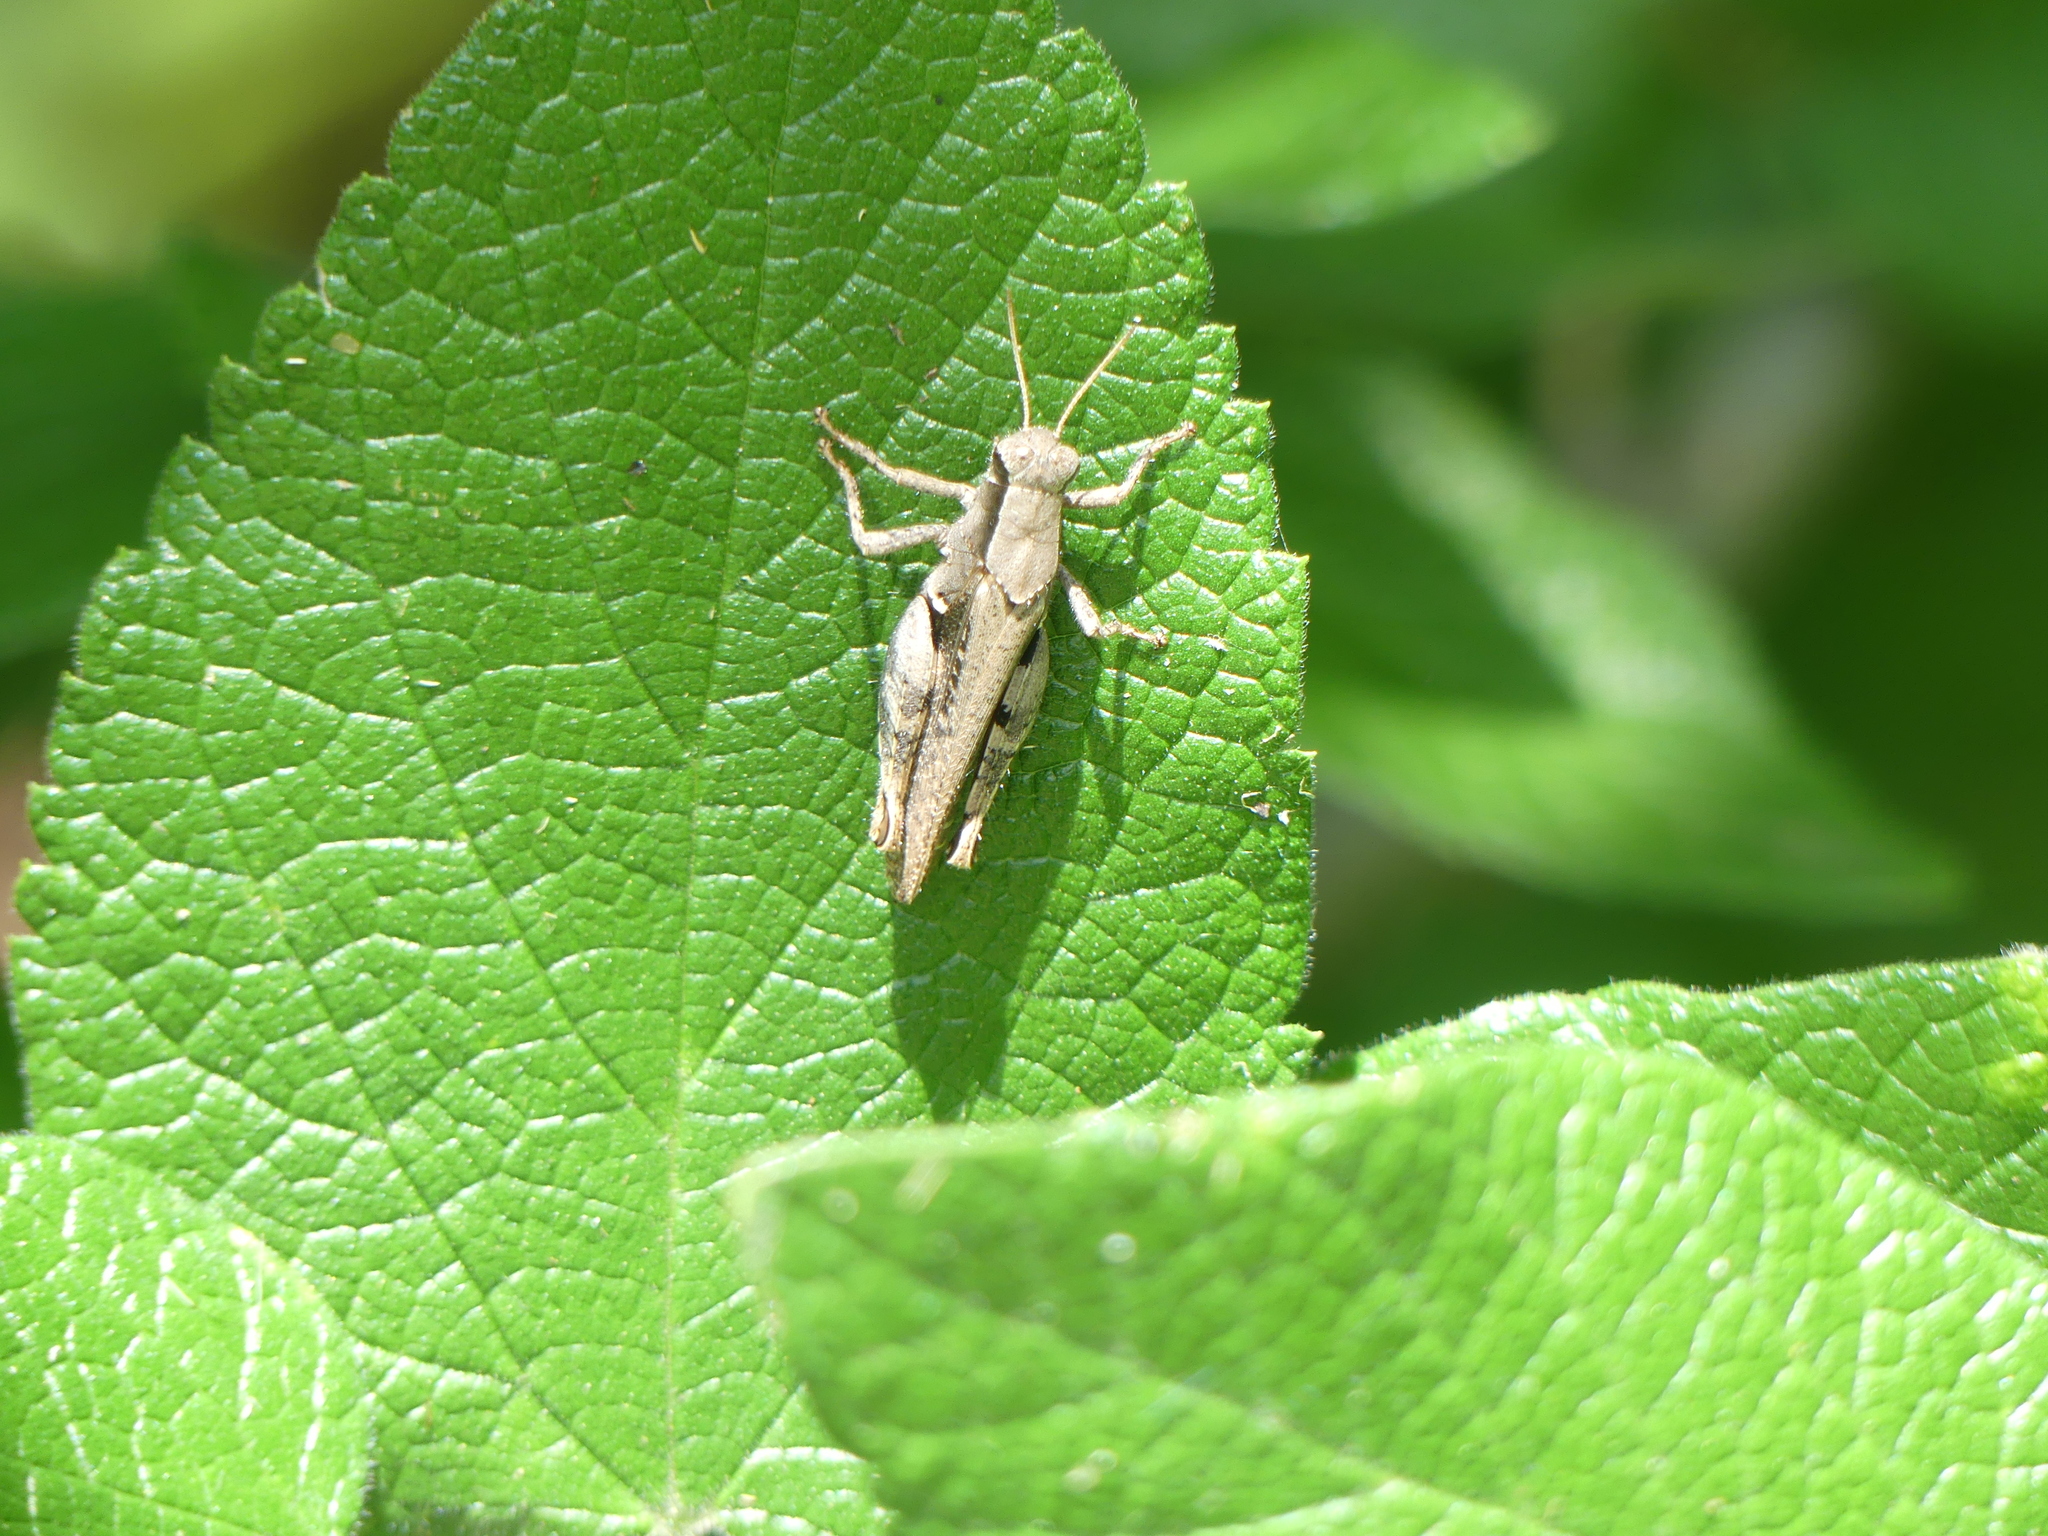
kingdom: Animalia
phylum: Arthropoda
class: Insecta
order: Orthoptera
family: Acrididae
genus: Aidemona
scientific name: Aidemona azteca
